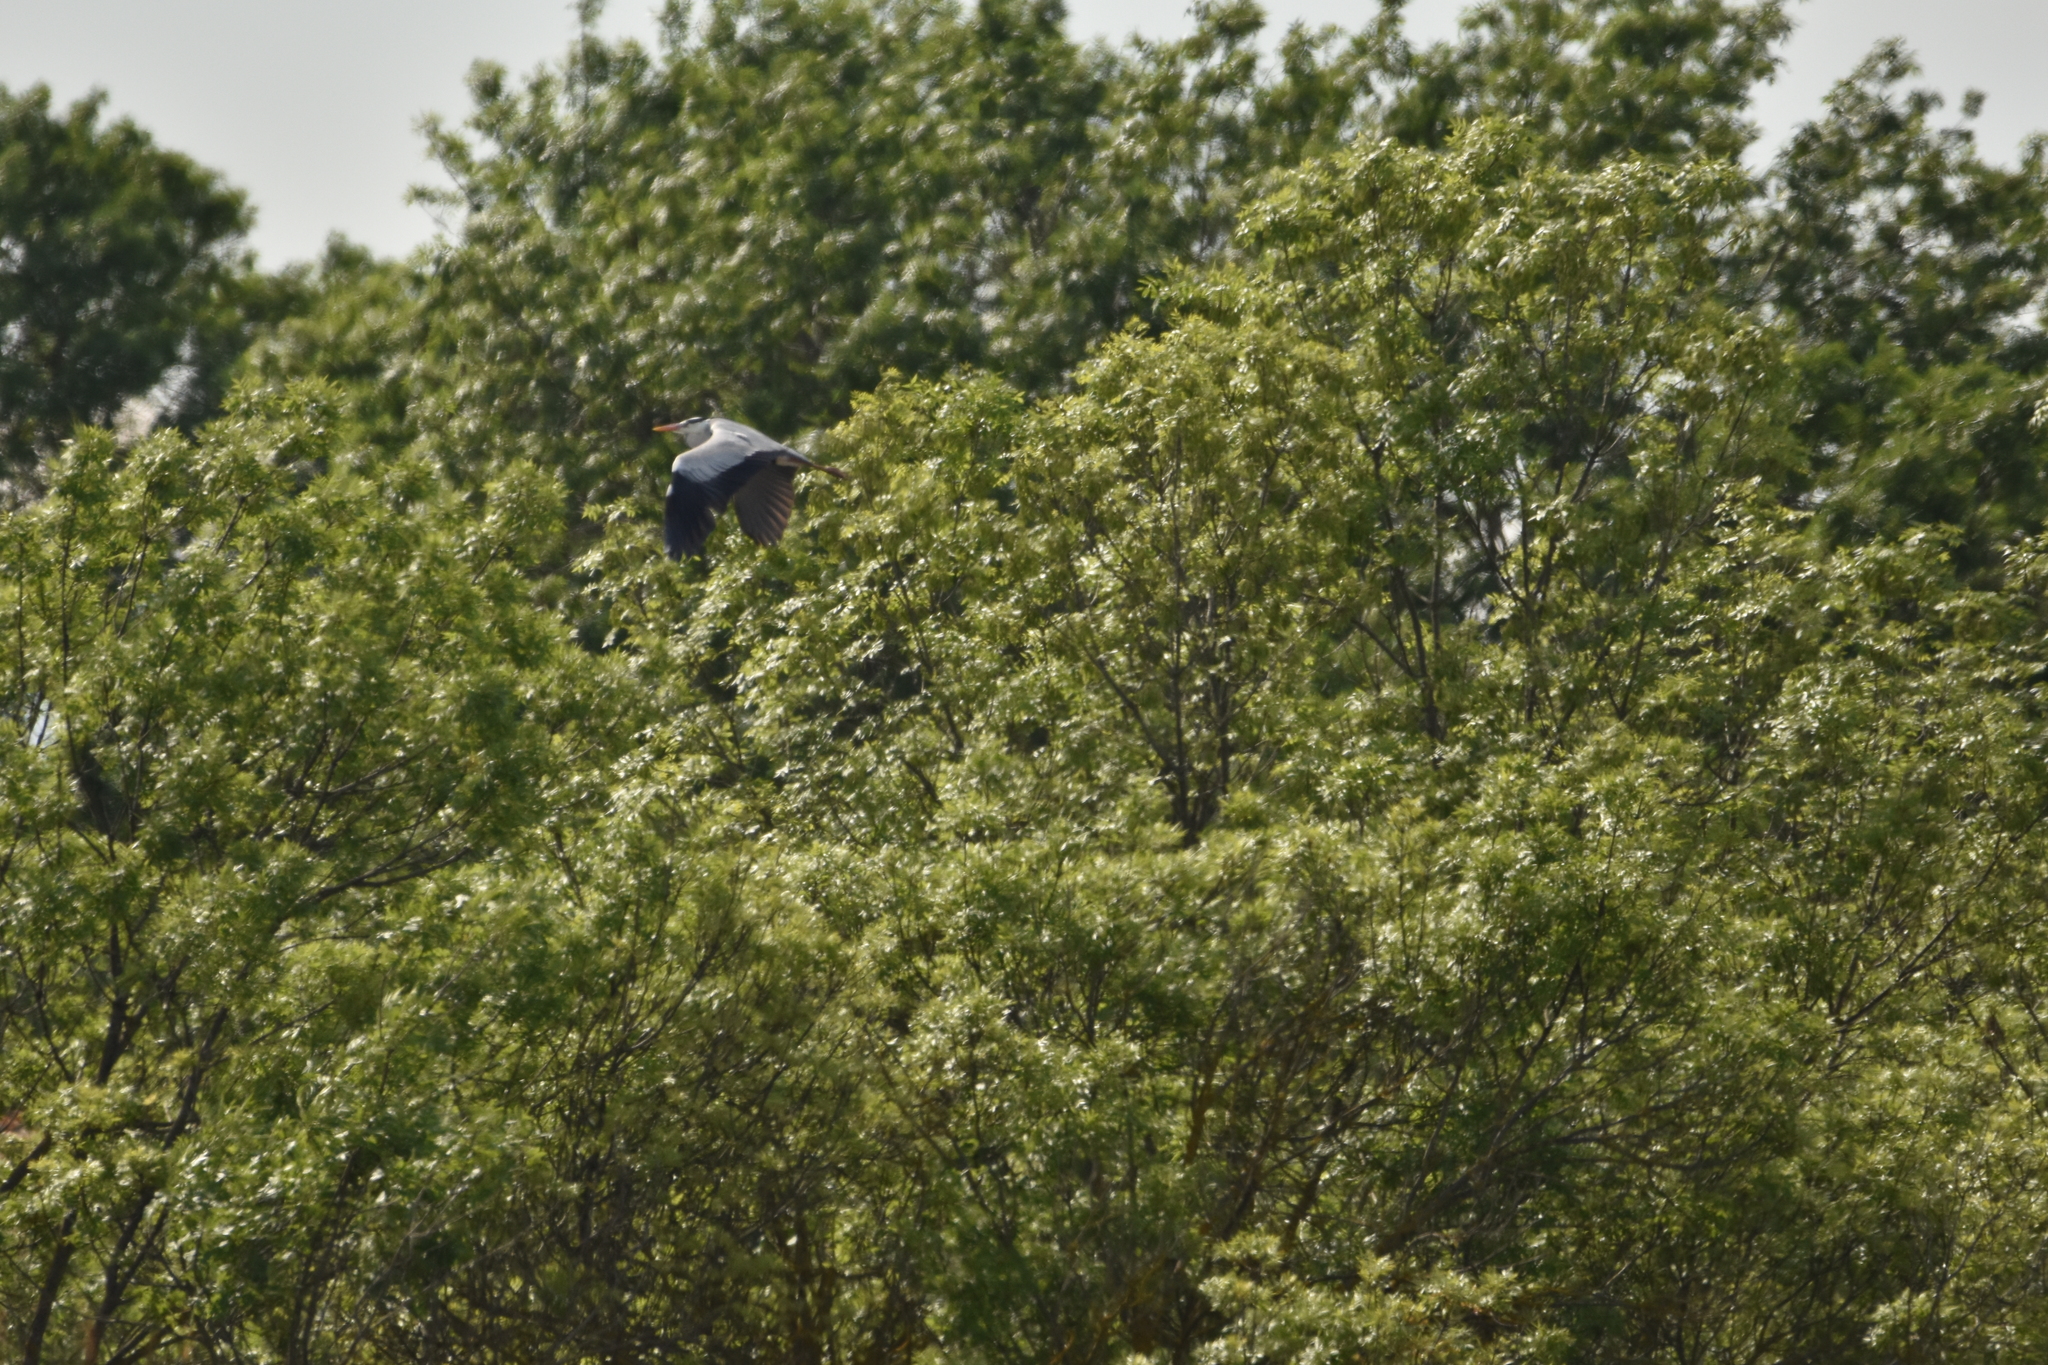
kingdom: Animalia
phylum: Chordata
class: Aves
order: Pelecaniformes
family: Ardeidae
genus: Ardea
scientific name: Ardea cinerea
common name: Grey heron
